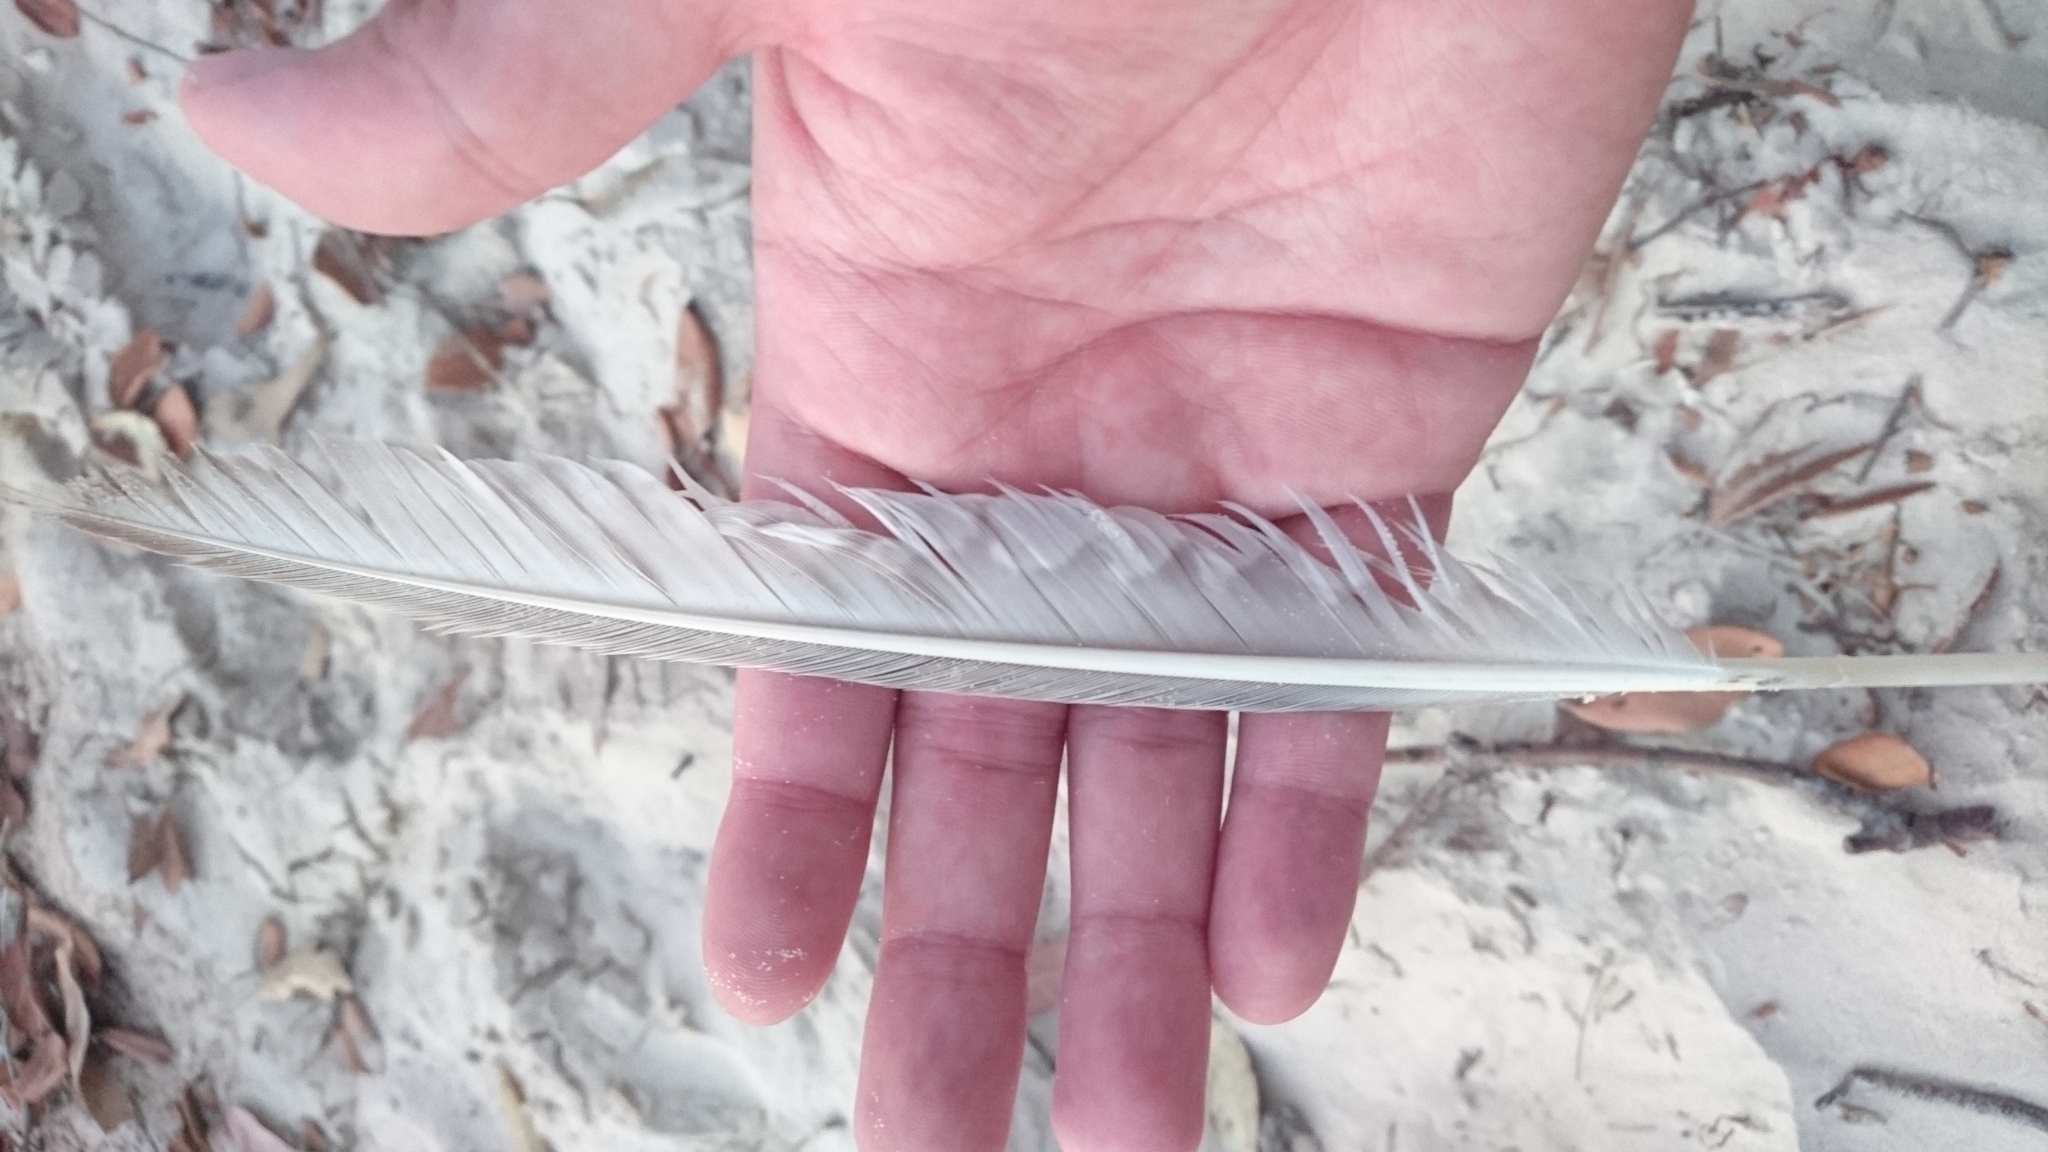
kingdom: Animalia
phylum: Chordata
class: Aves
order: Charadriiformes
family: Scolopacidae
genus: Numenius
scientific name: Numenius phaeopus
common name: Whimbrel
